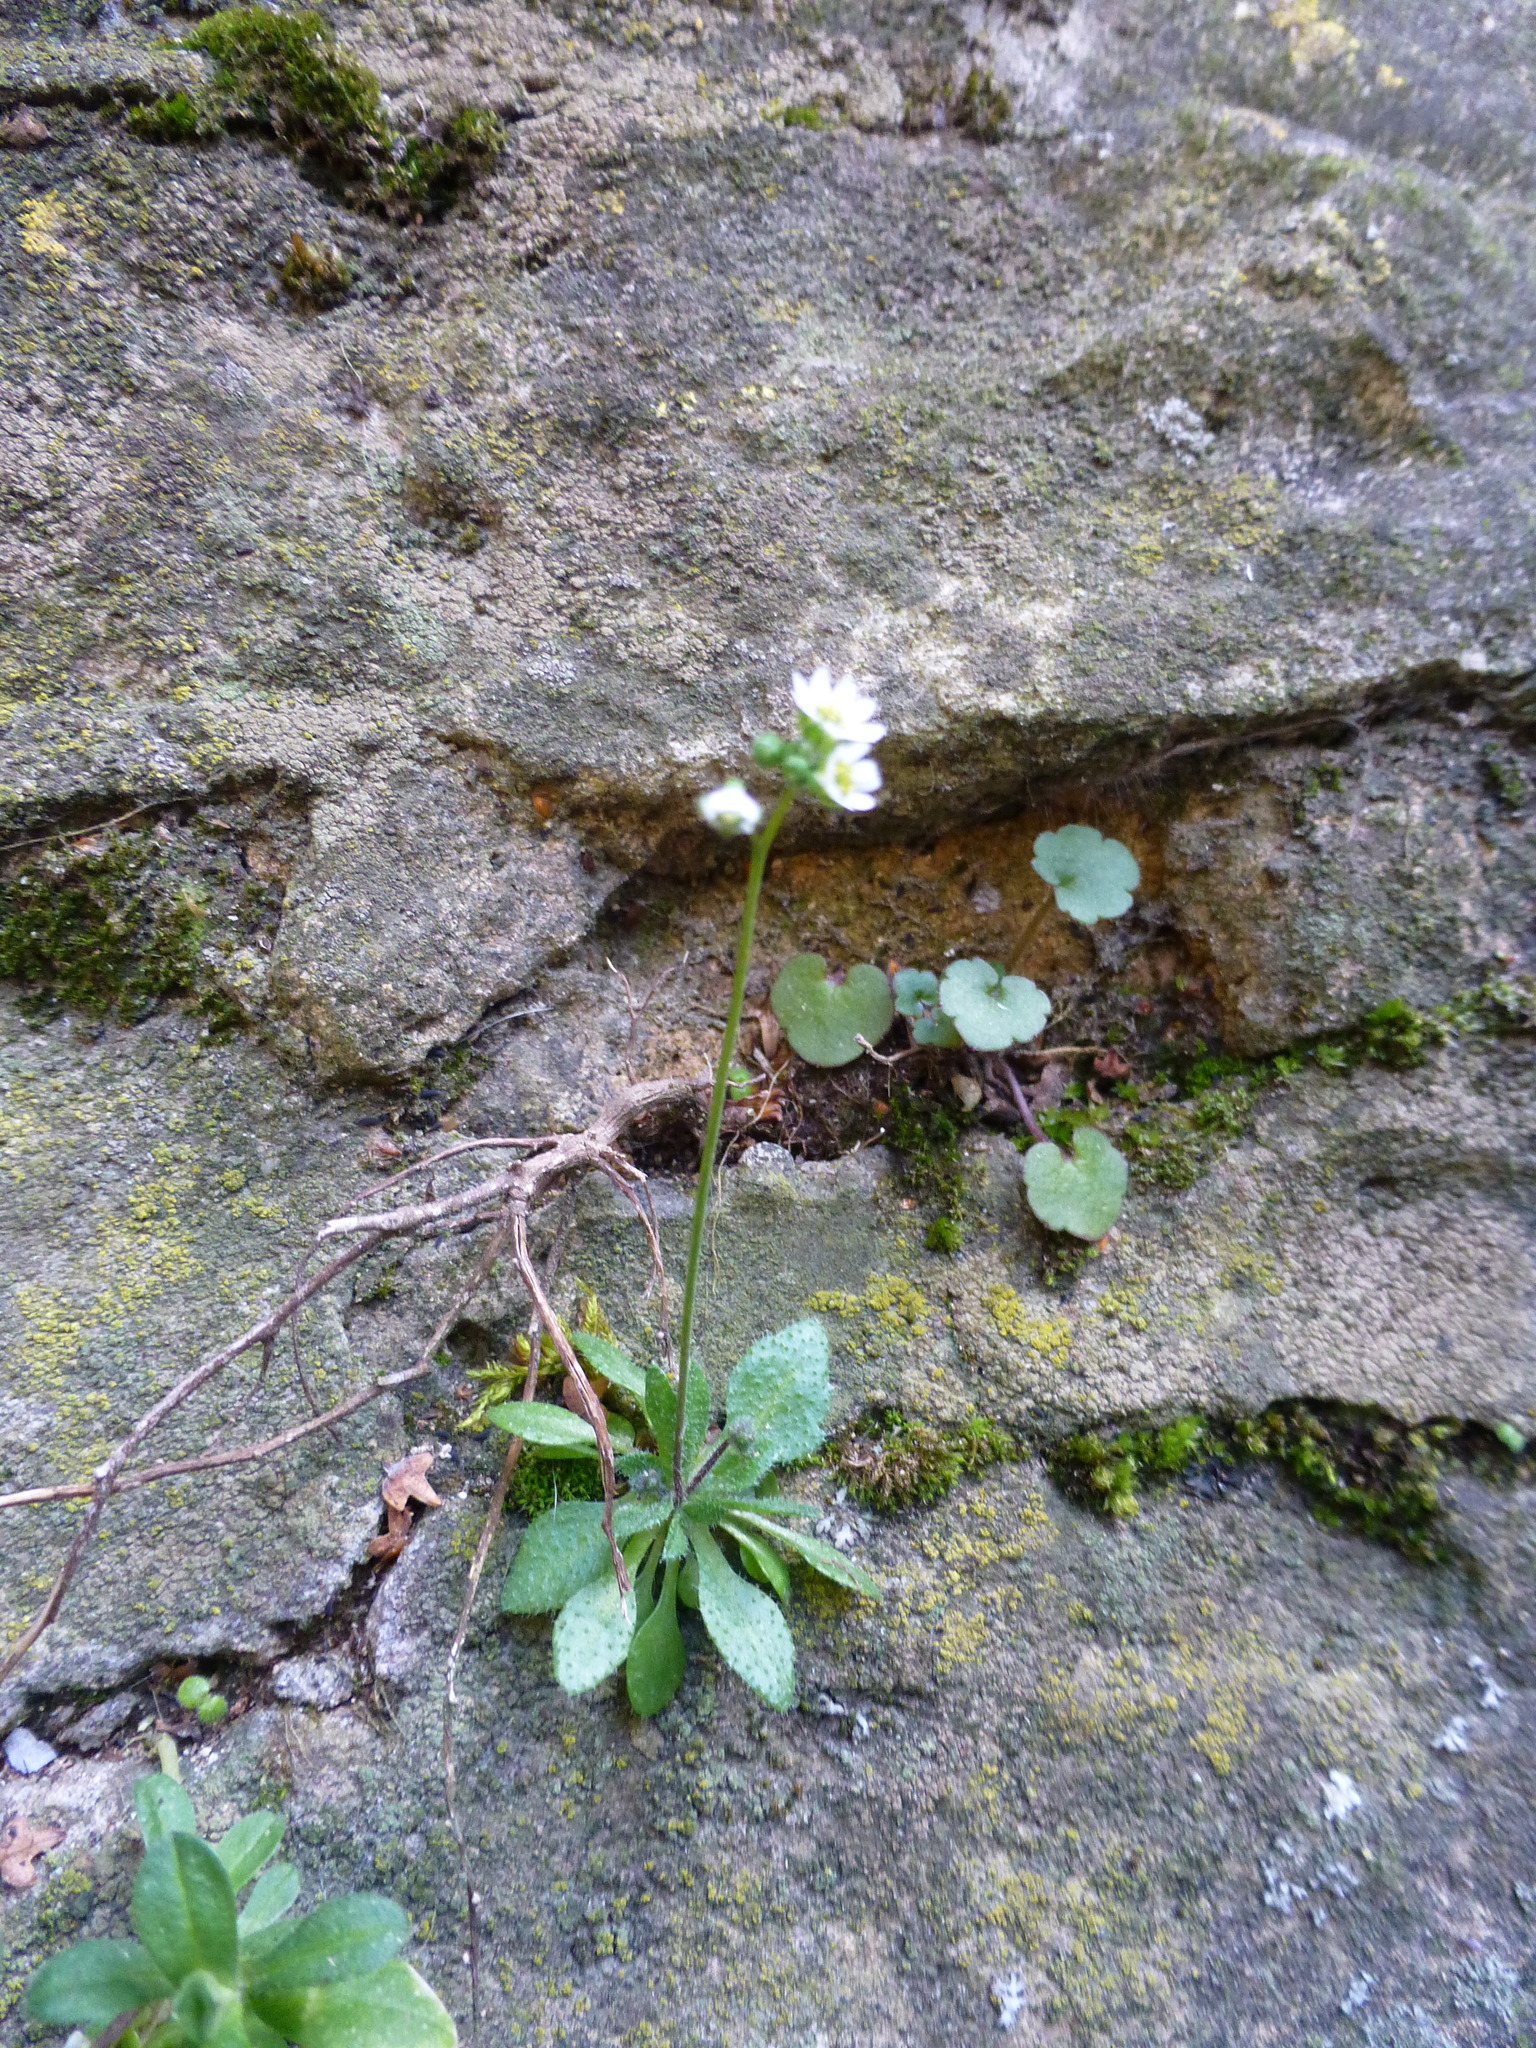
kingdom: Plantae
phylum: Tracheophyta
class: Magnoliopsida
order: Brassicales
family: Brassicaceae
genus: Draba
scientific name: Draba verna
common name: Spring draba
